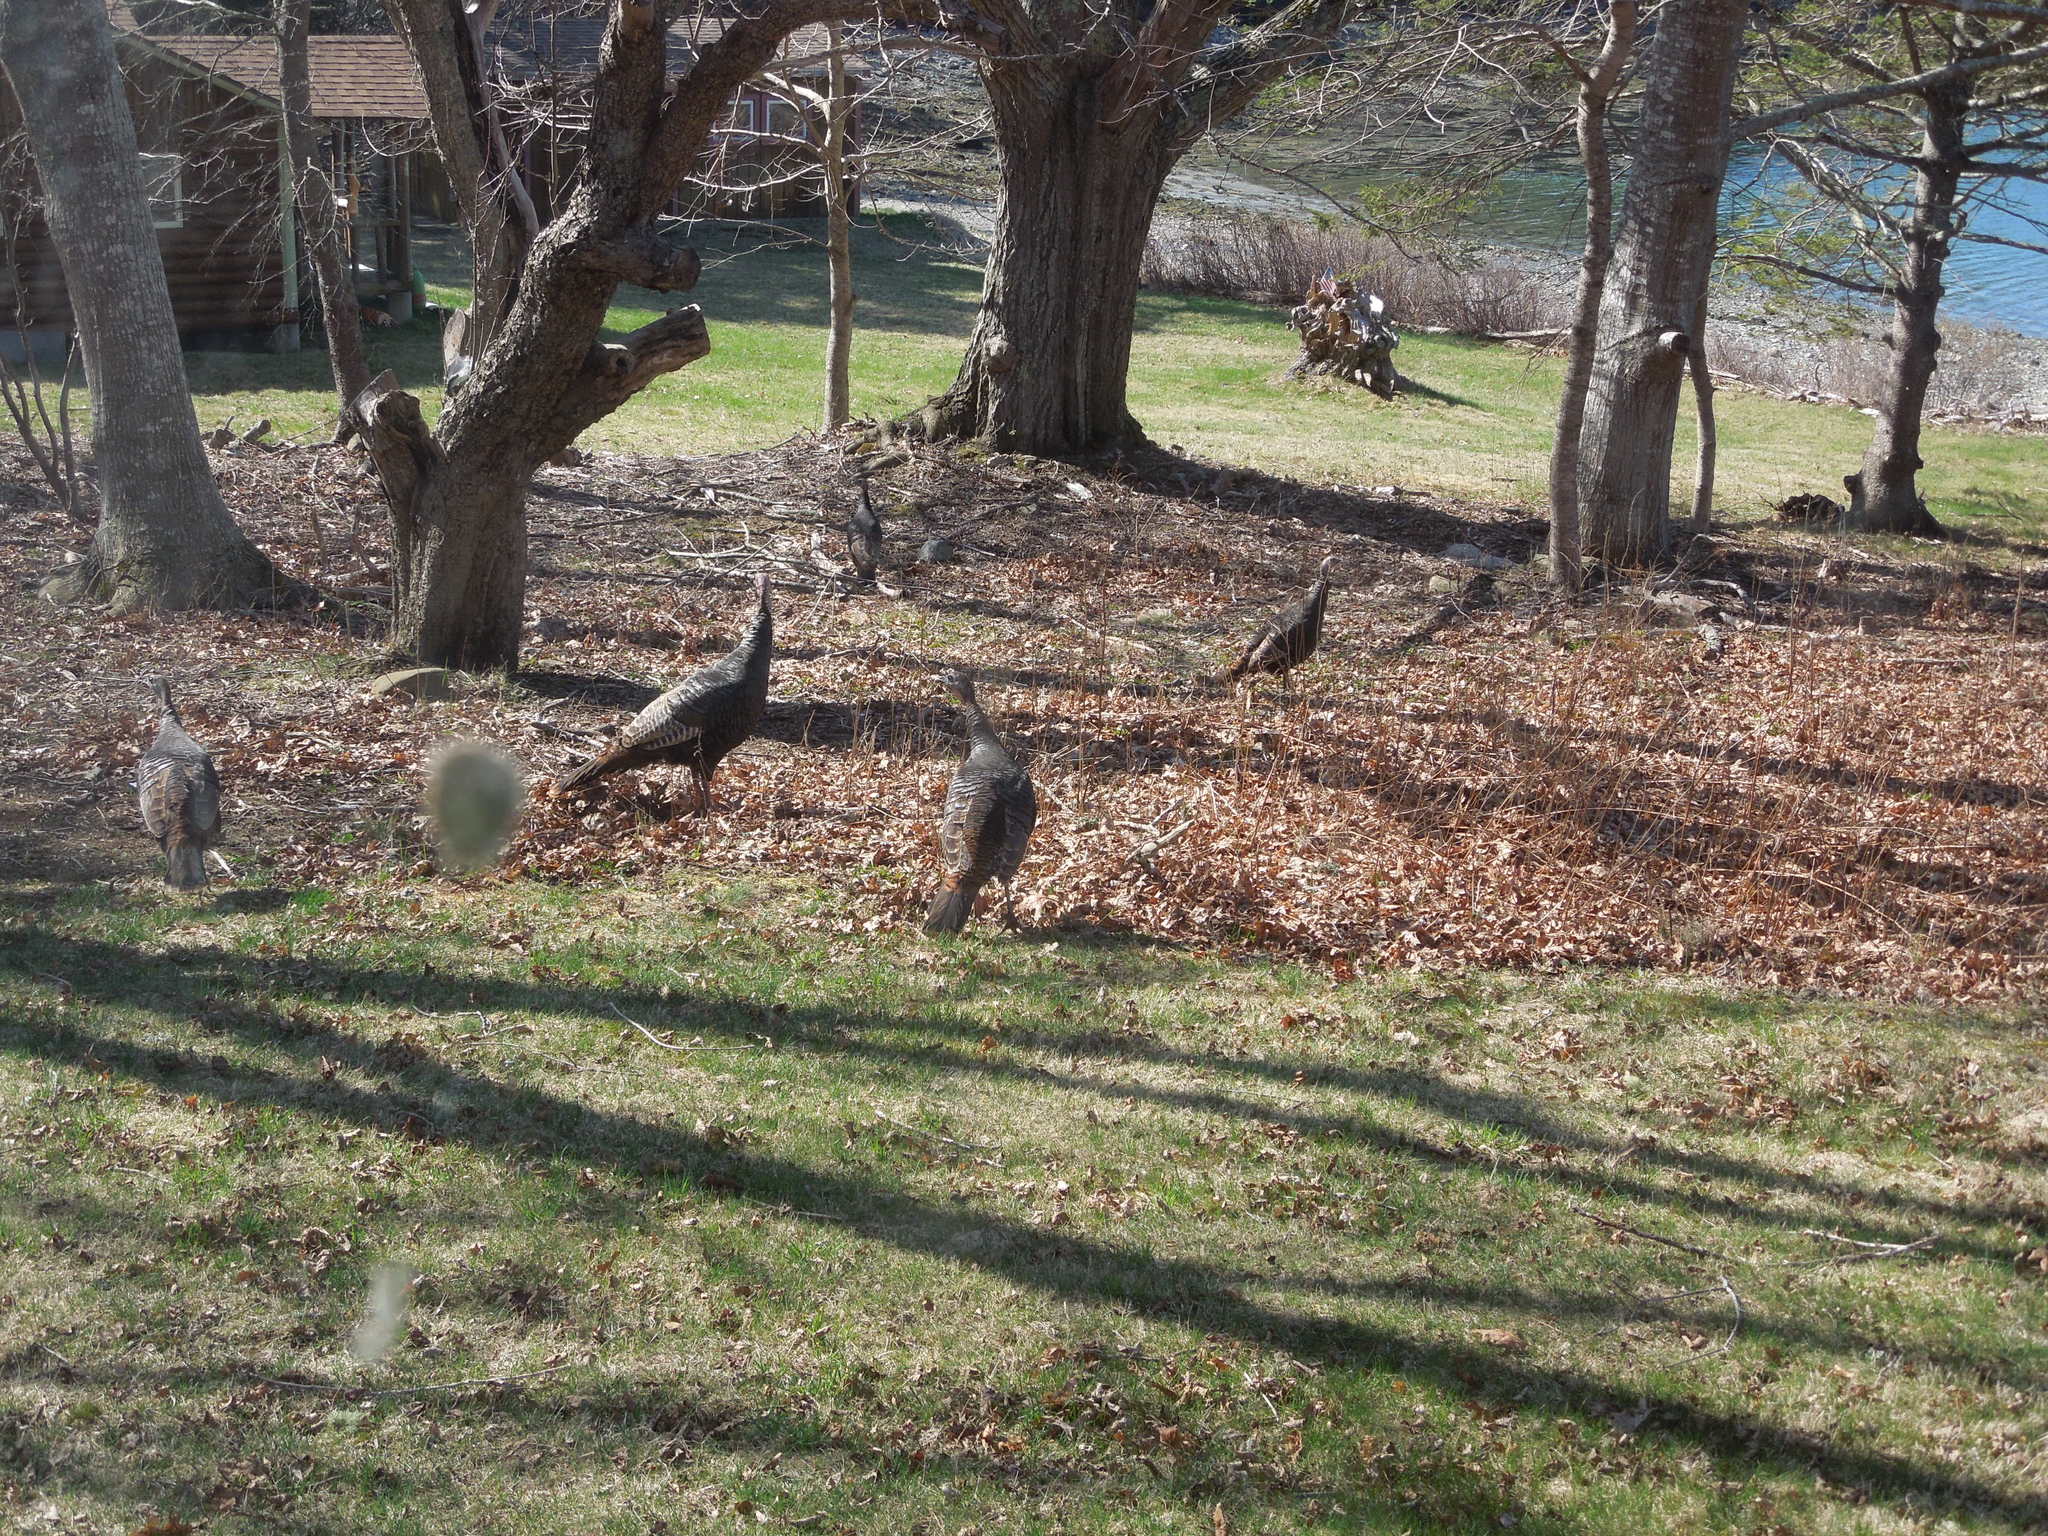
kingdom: Animalia
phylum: Chordata
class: Aves
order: Galliformes
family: Phasianidae
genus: Meleagris
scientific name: Meleagris gallopavo
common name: Wild turkey
